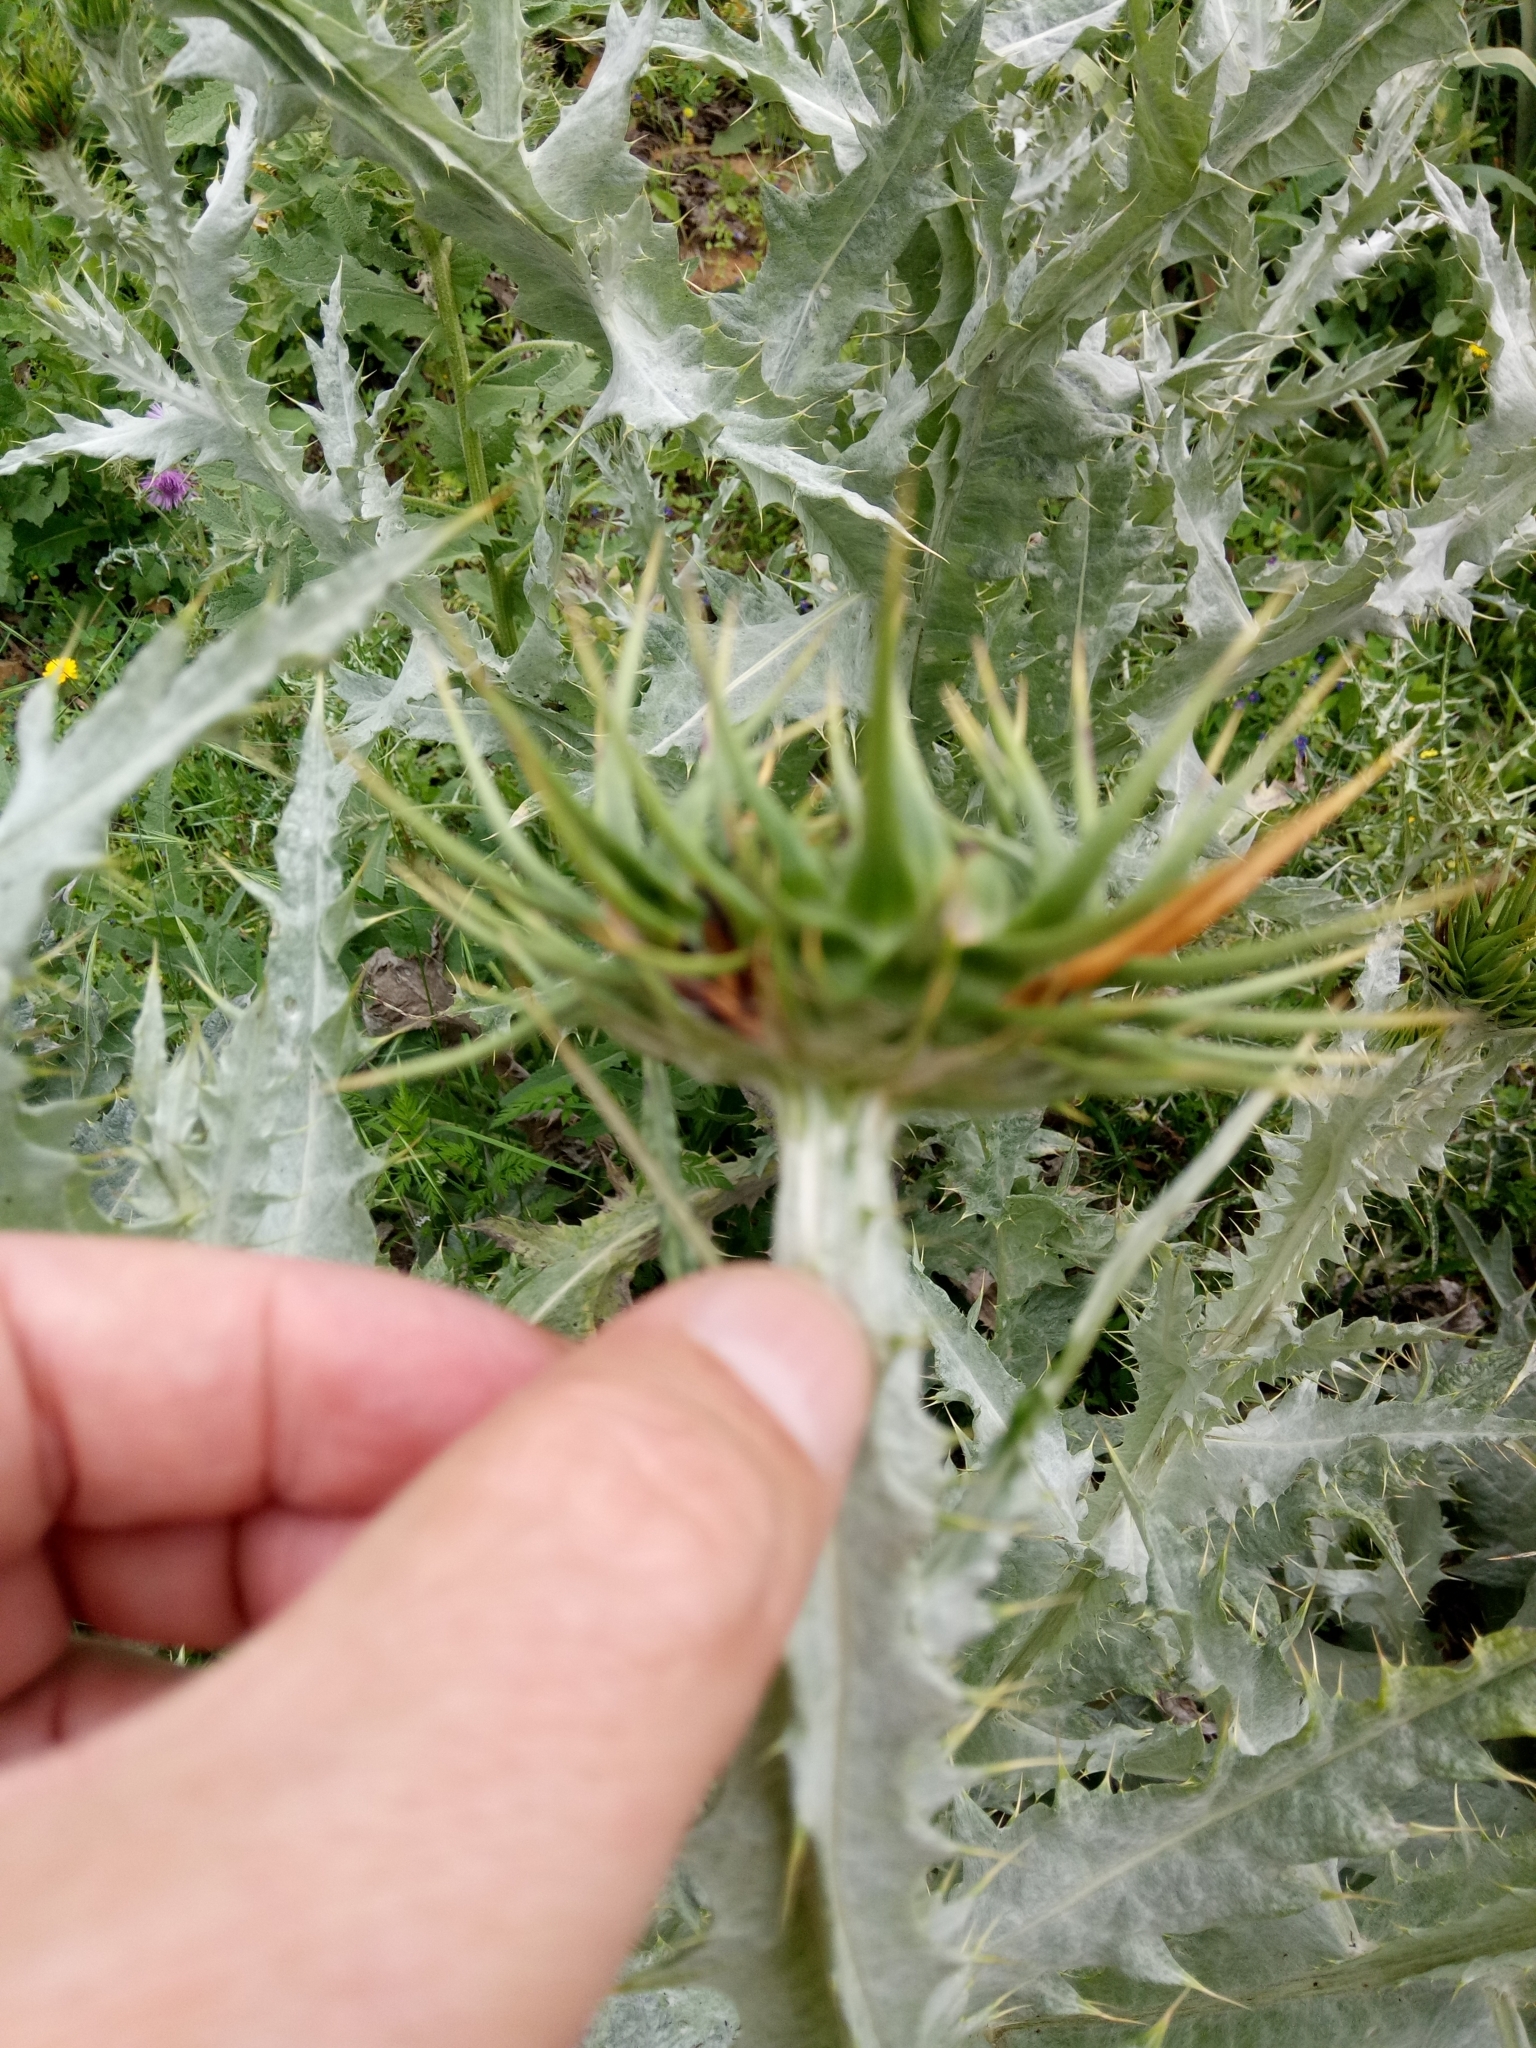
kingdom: Plantae
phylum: Tracheophyta
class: Magnoliopsida
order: Asterales
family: Asteraceae
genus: Onopordum
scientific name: Onopordum macracanthum
